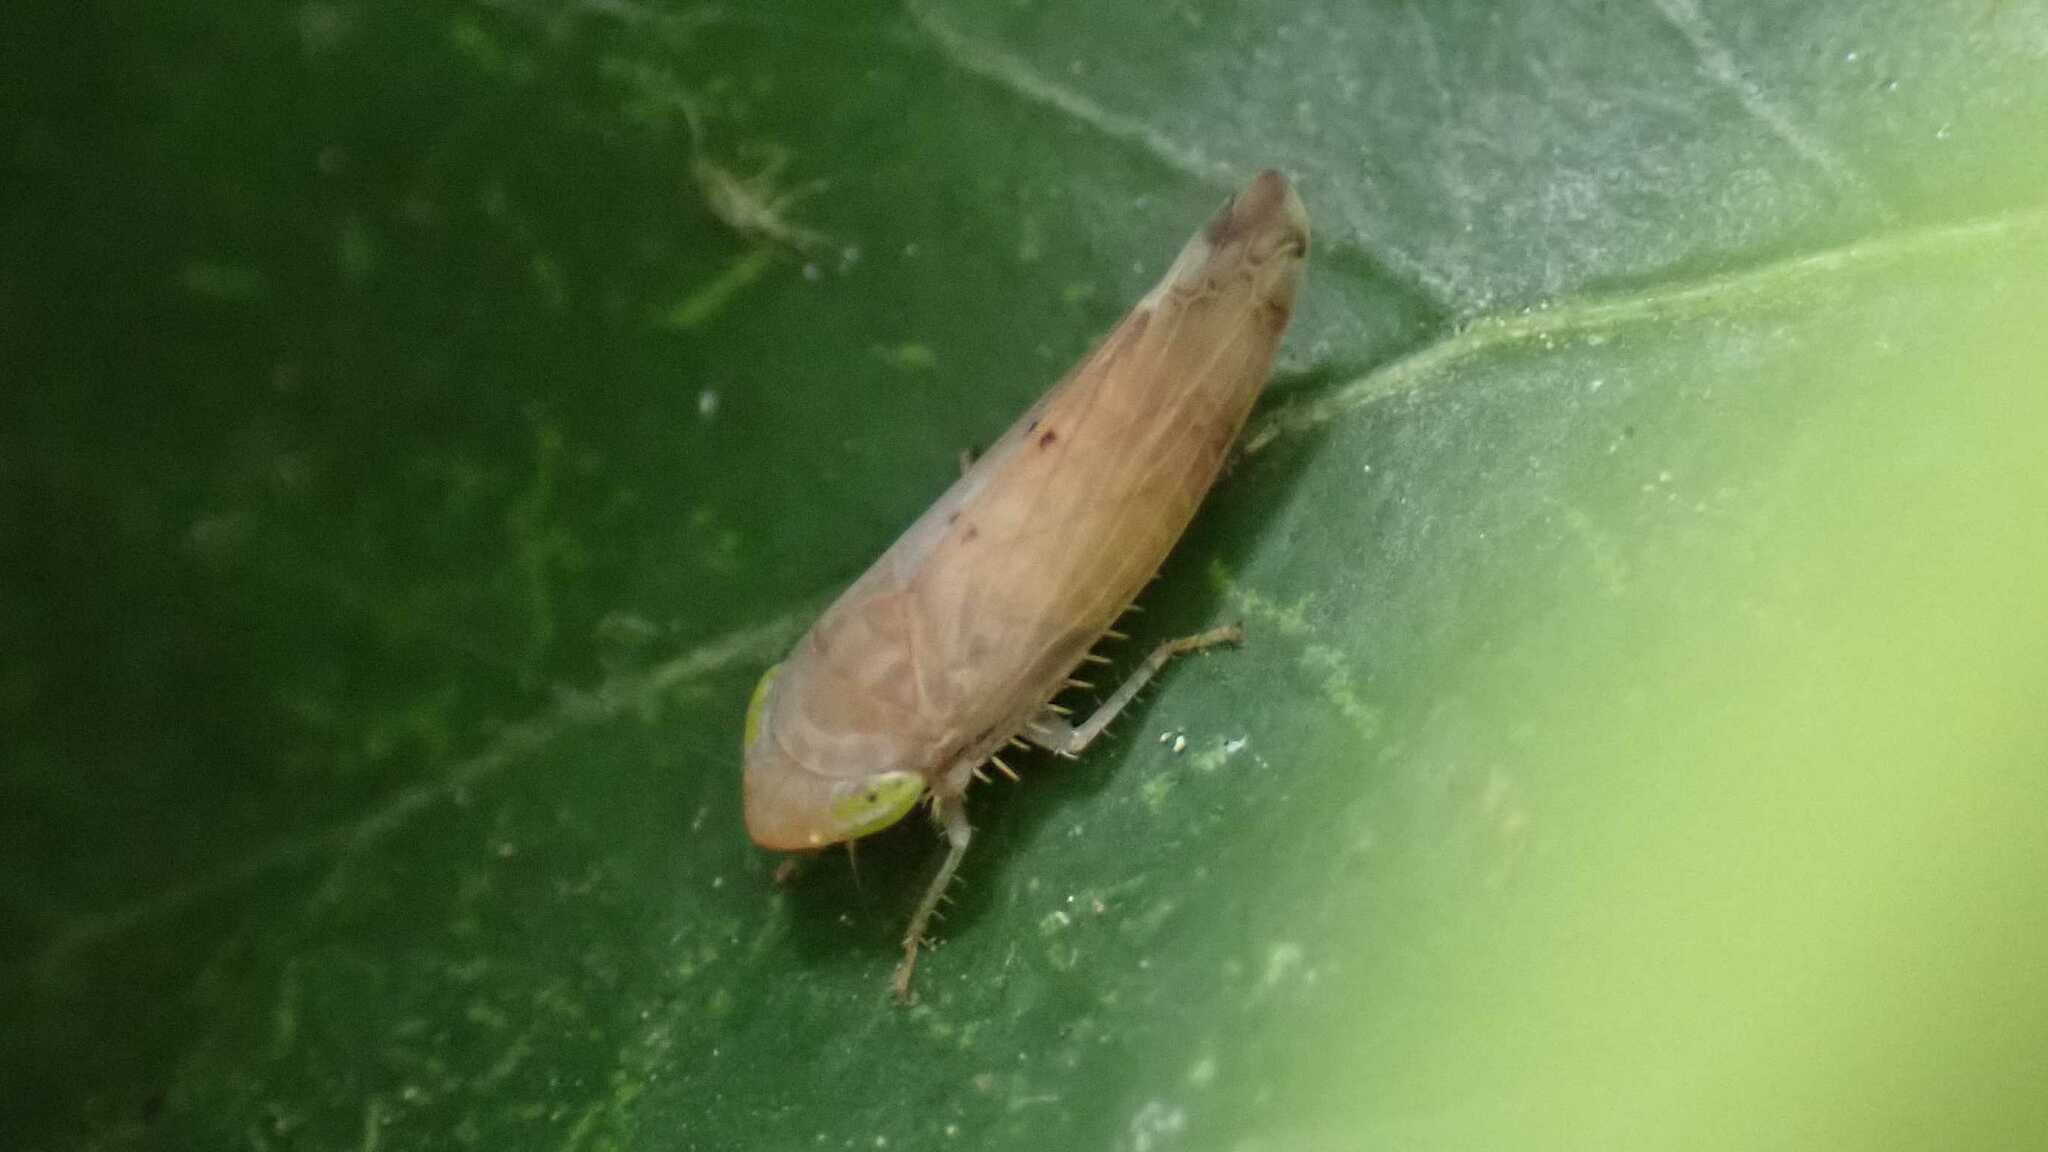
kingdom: Animalia
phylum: Arthropoda
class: Insecta
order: Hemiptera
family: Cicadellidae
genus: Synophropsis
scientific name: Synophropsis lauri
